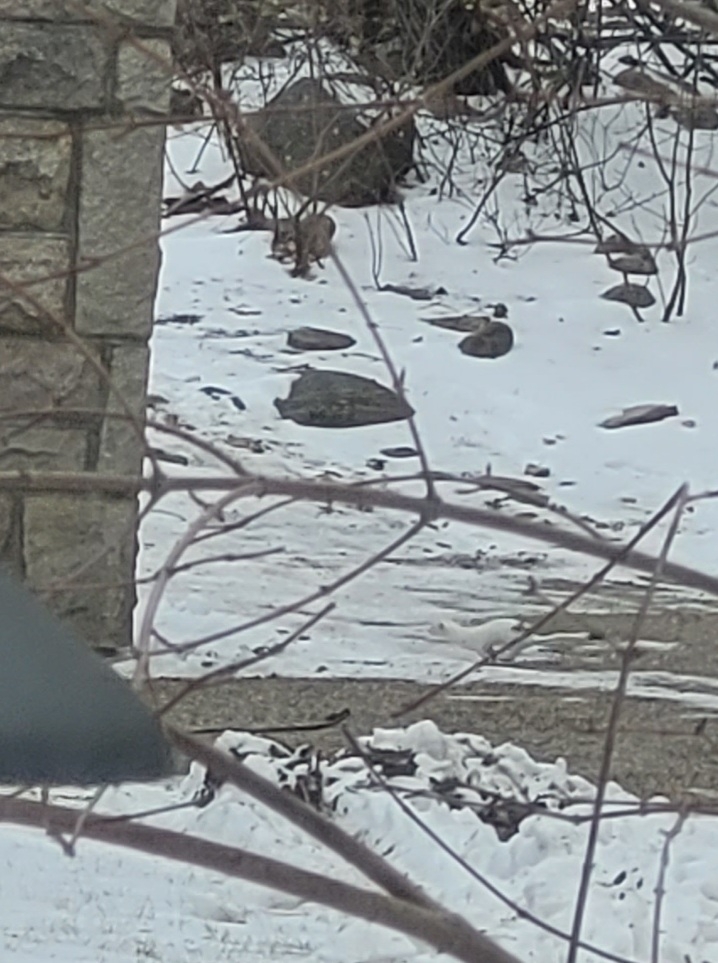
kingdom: Animalia
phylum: Chordata
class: Mammalia
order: Carnivora
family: Mustelidae
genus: Mustela
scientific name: Mustela
